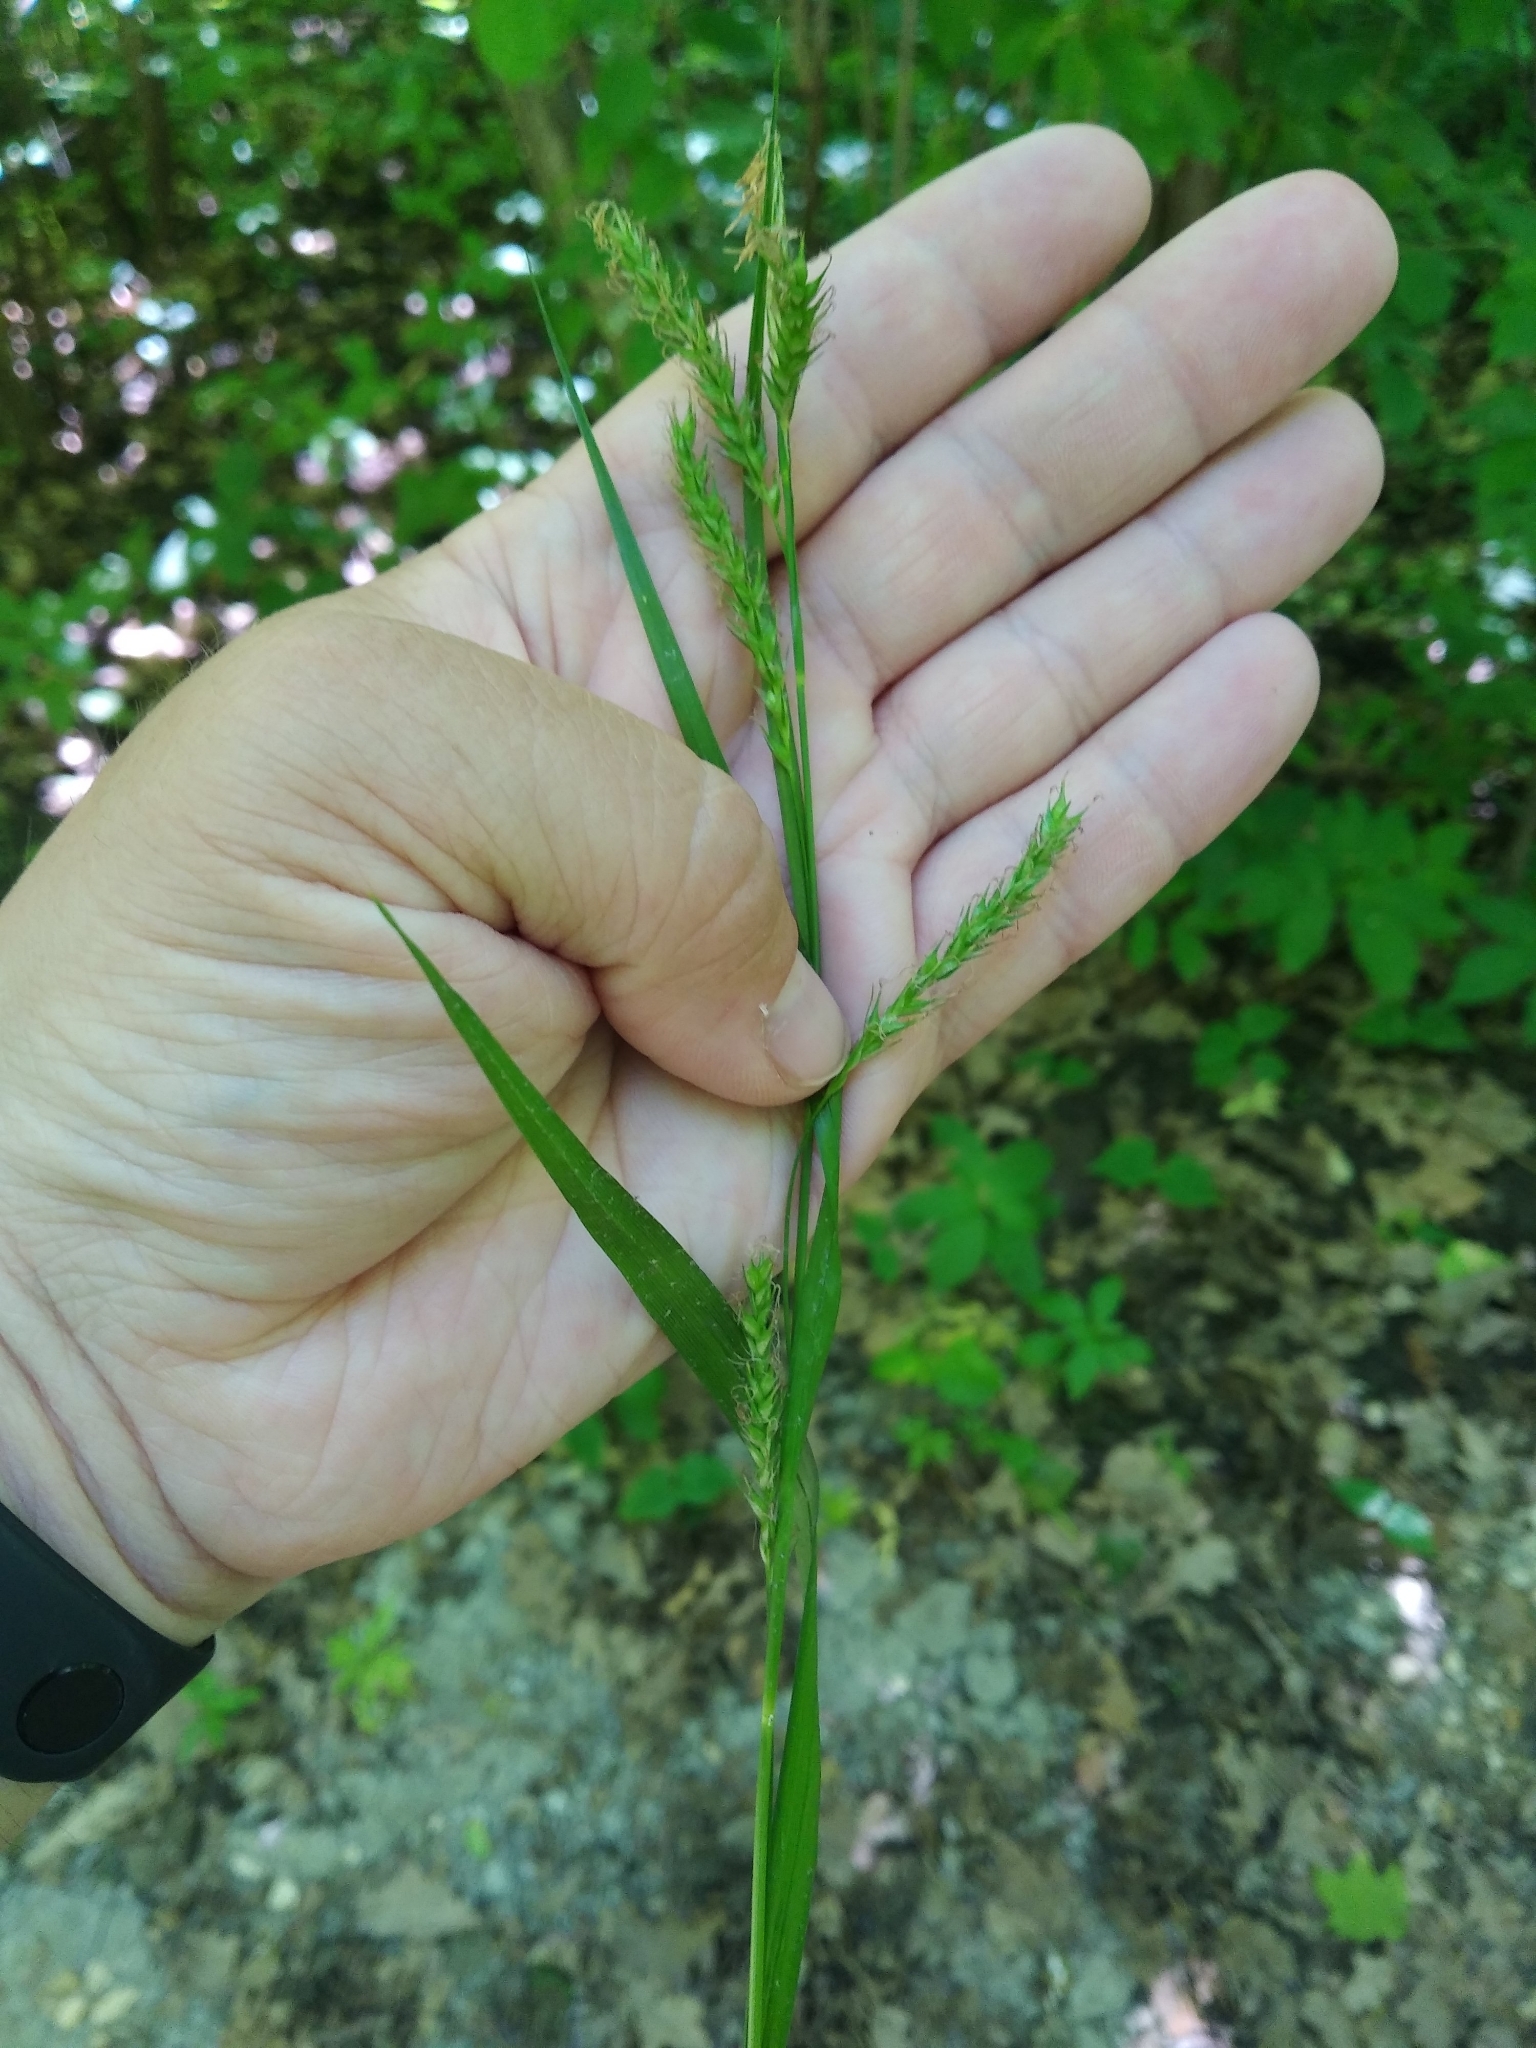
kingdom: Plantae
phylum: Tracheophyta
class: Liliopsida
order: Poales
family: Cyperaceae
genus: Carex
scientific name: Carex sylvatica
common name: Wood-sedge
